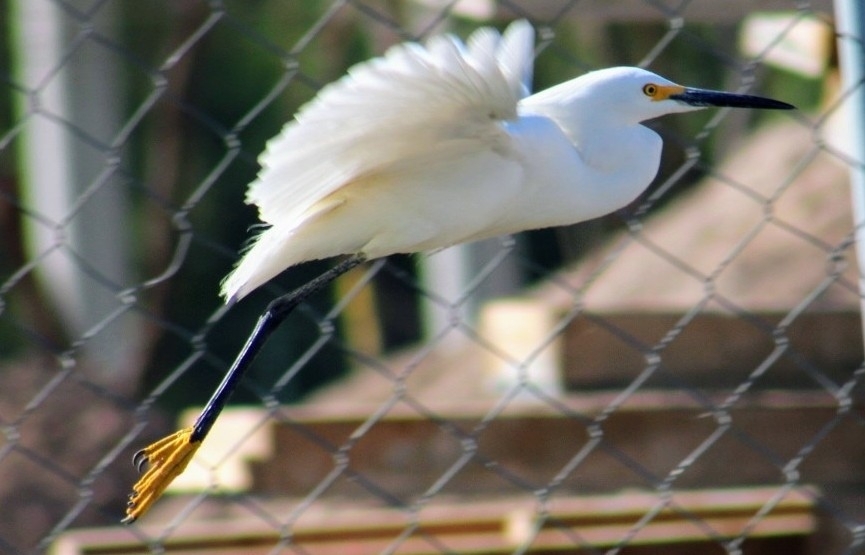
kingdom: Animalia
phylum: Chordata
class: Aves
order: Pelecaniformes
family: Ardeidae
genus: Egretta
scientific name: Egretta thula
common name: Snowy egret
